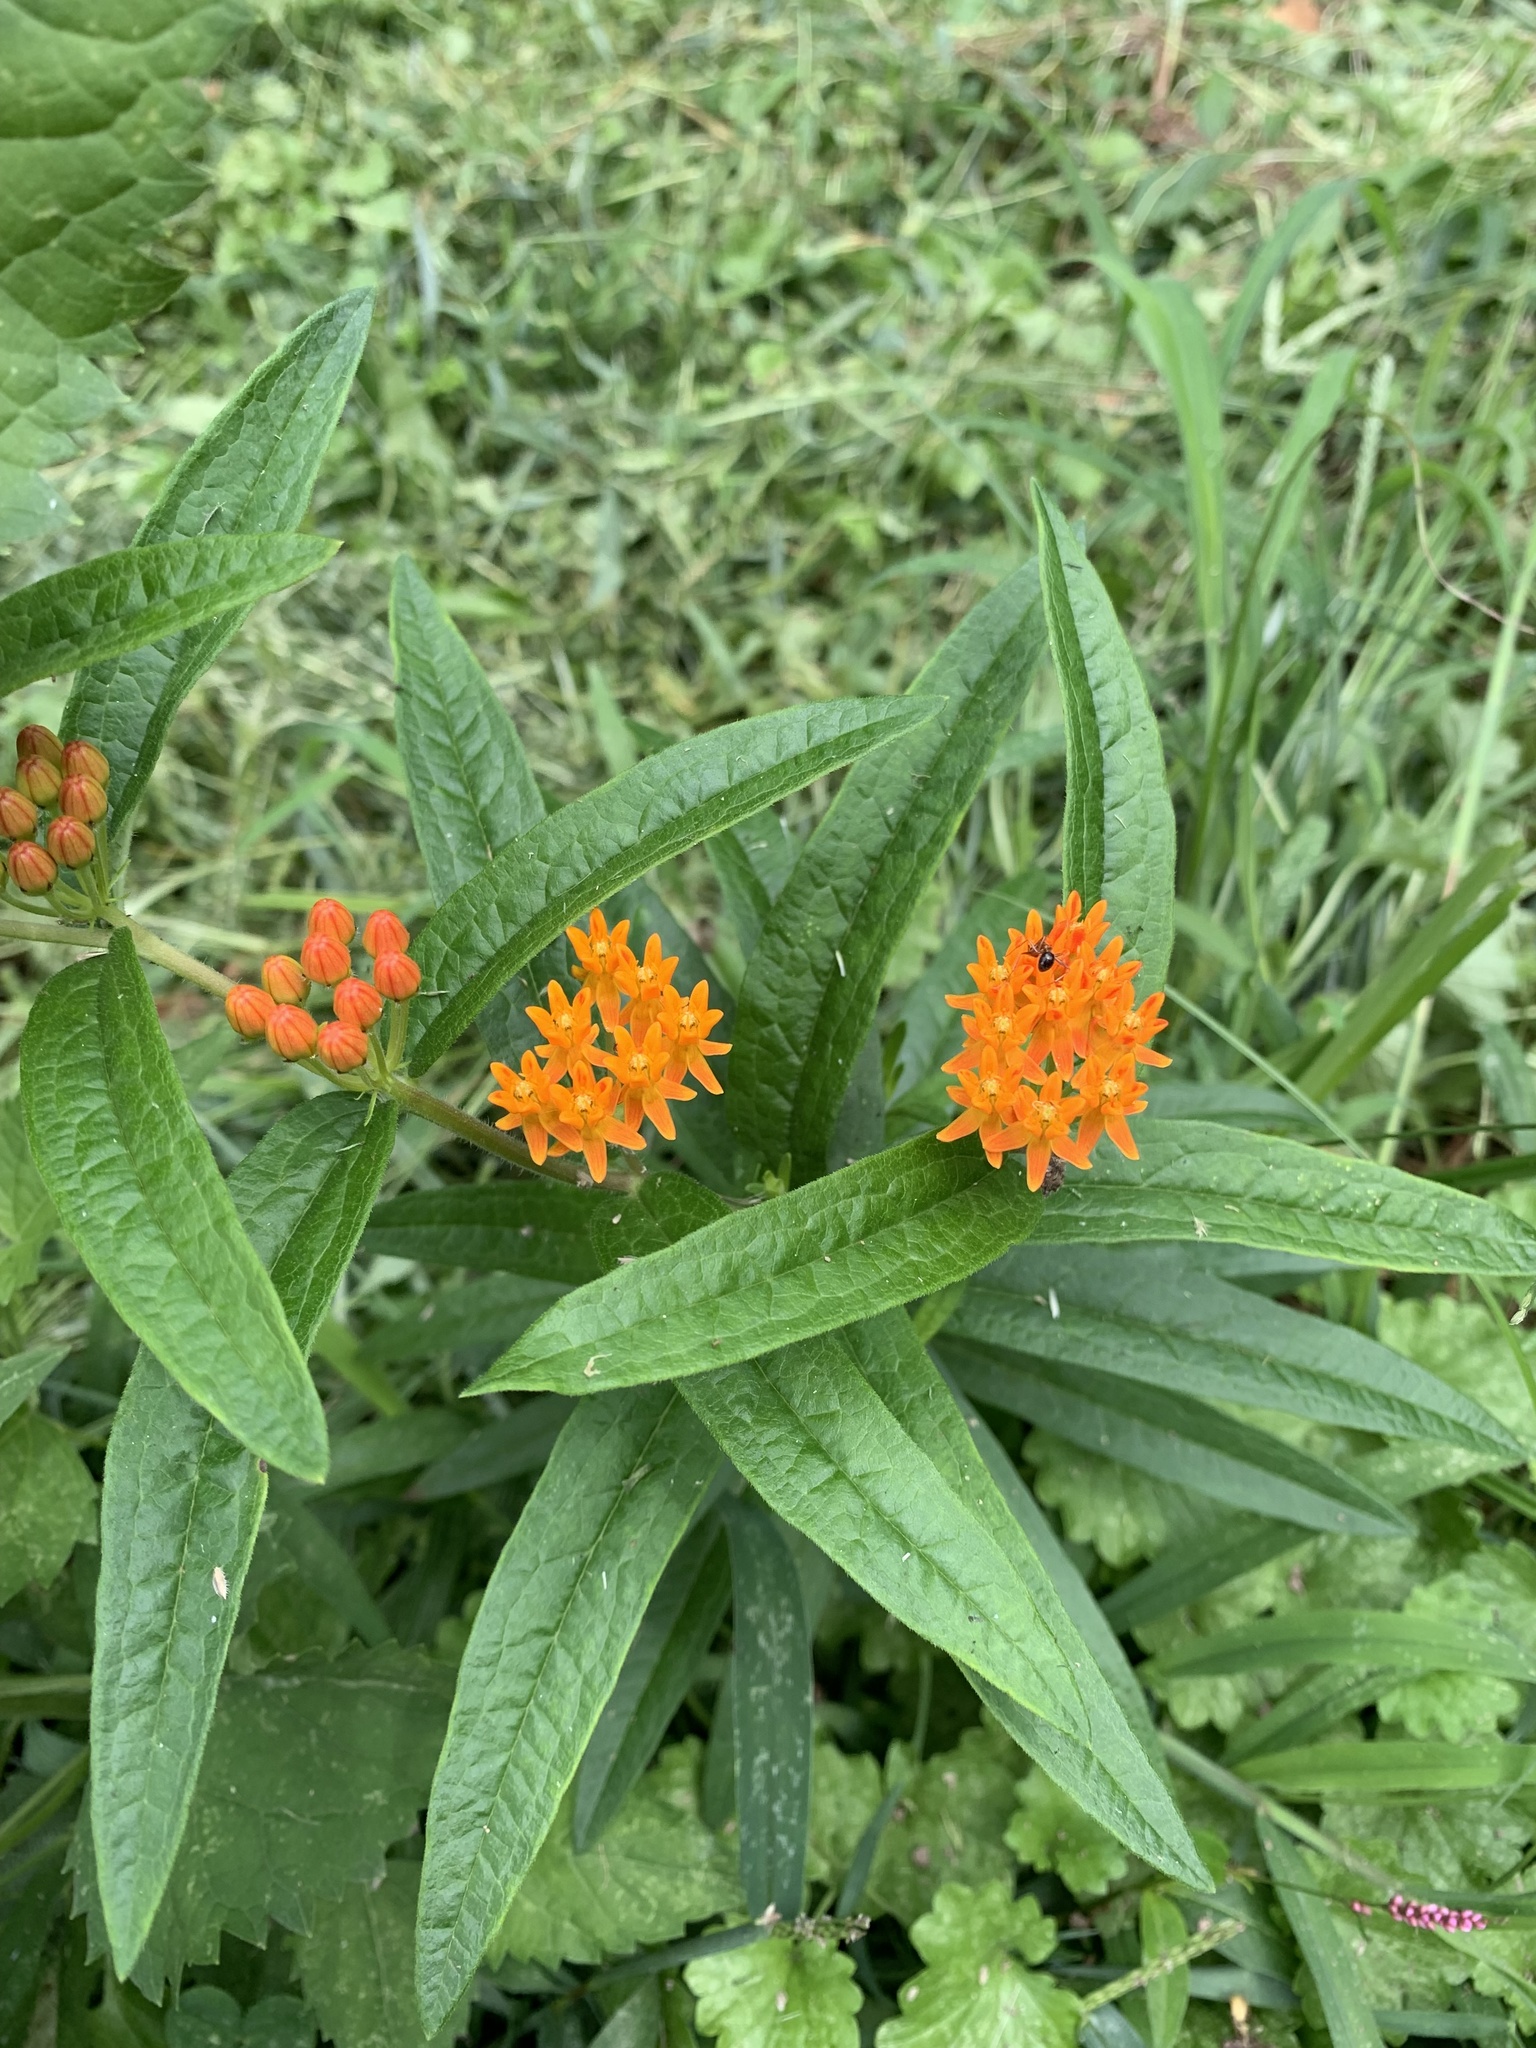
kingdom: Plantae
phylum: Tracheophyta
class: Magnoliopsida
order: Gentianales
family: Apocynaceae
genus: Asclepias
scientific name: Asclepias tuberosa
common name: Butterfly milkweed
